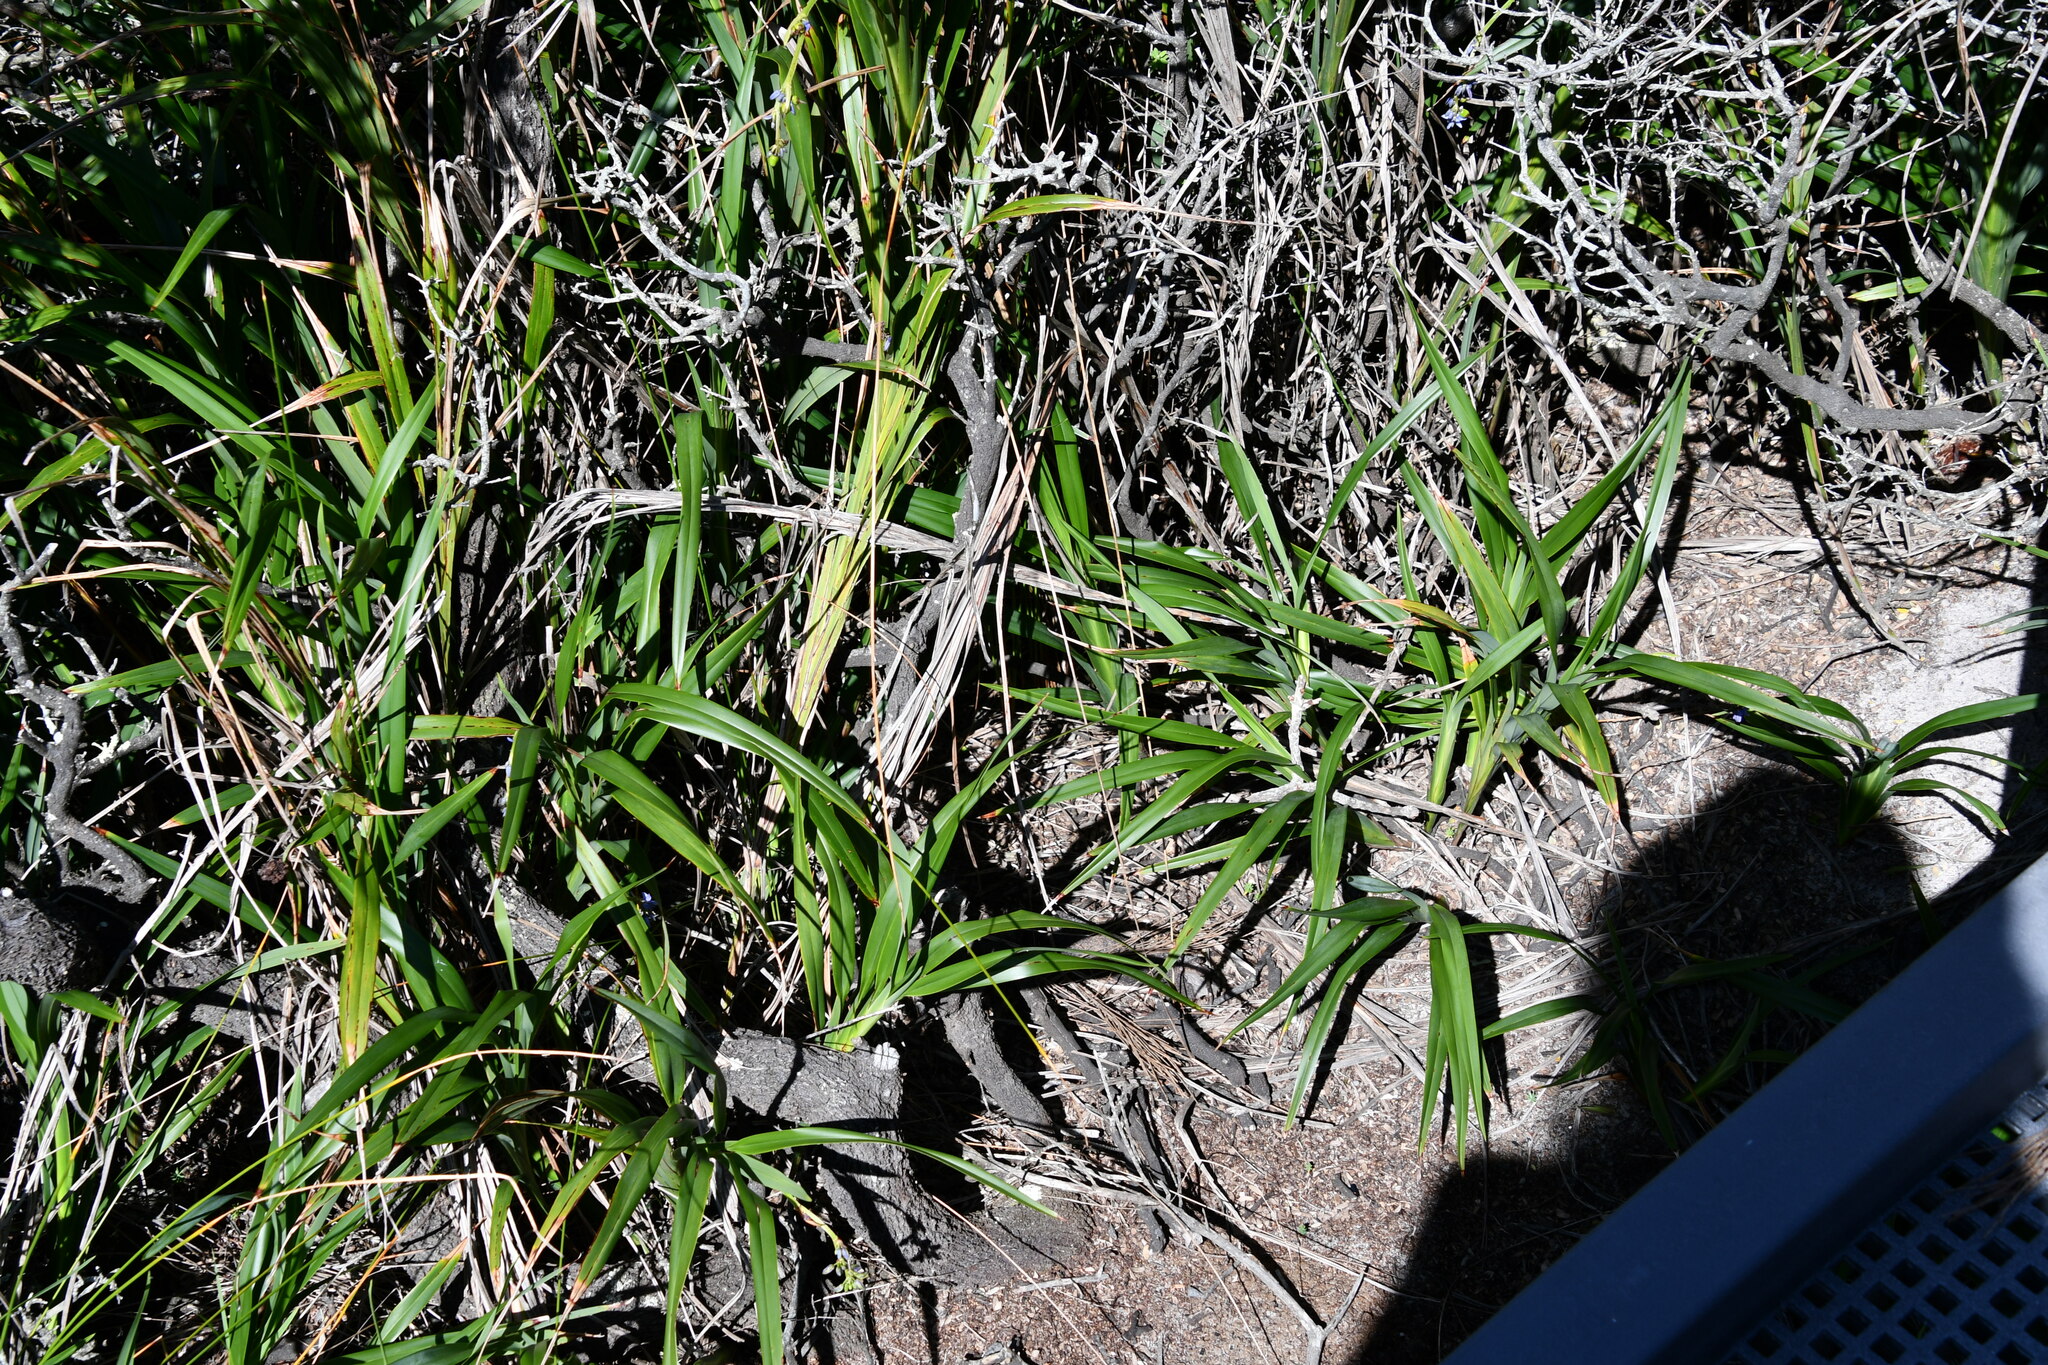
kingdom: Plantae
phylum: Tracheophyta
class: Liliopsida
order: Asparagales
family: Asphodelaceae
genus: Dianella
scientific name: Dianella caerulea
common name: Blue flax-lily
